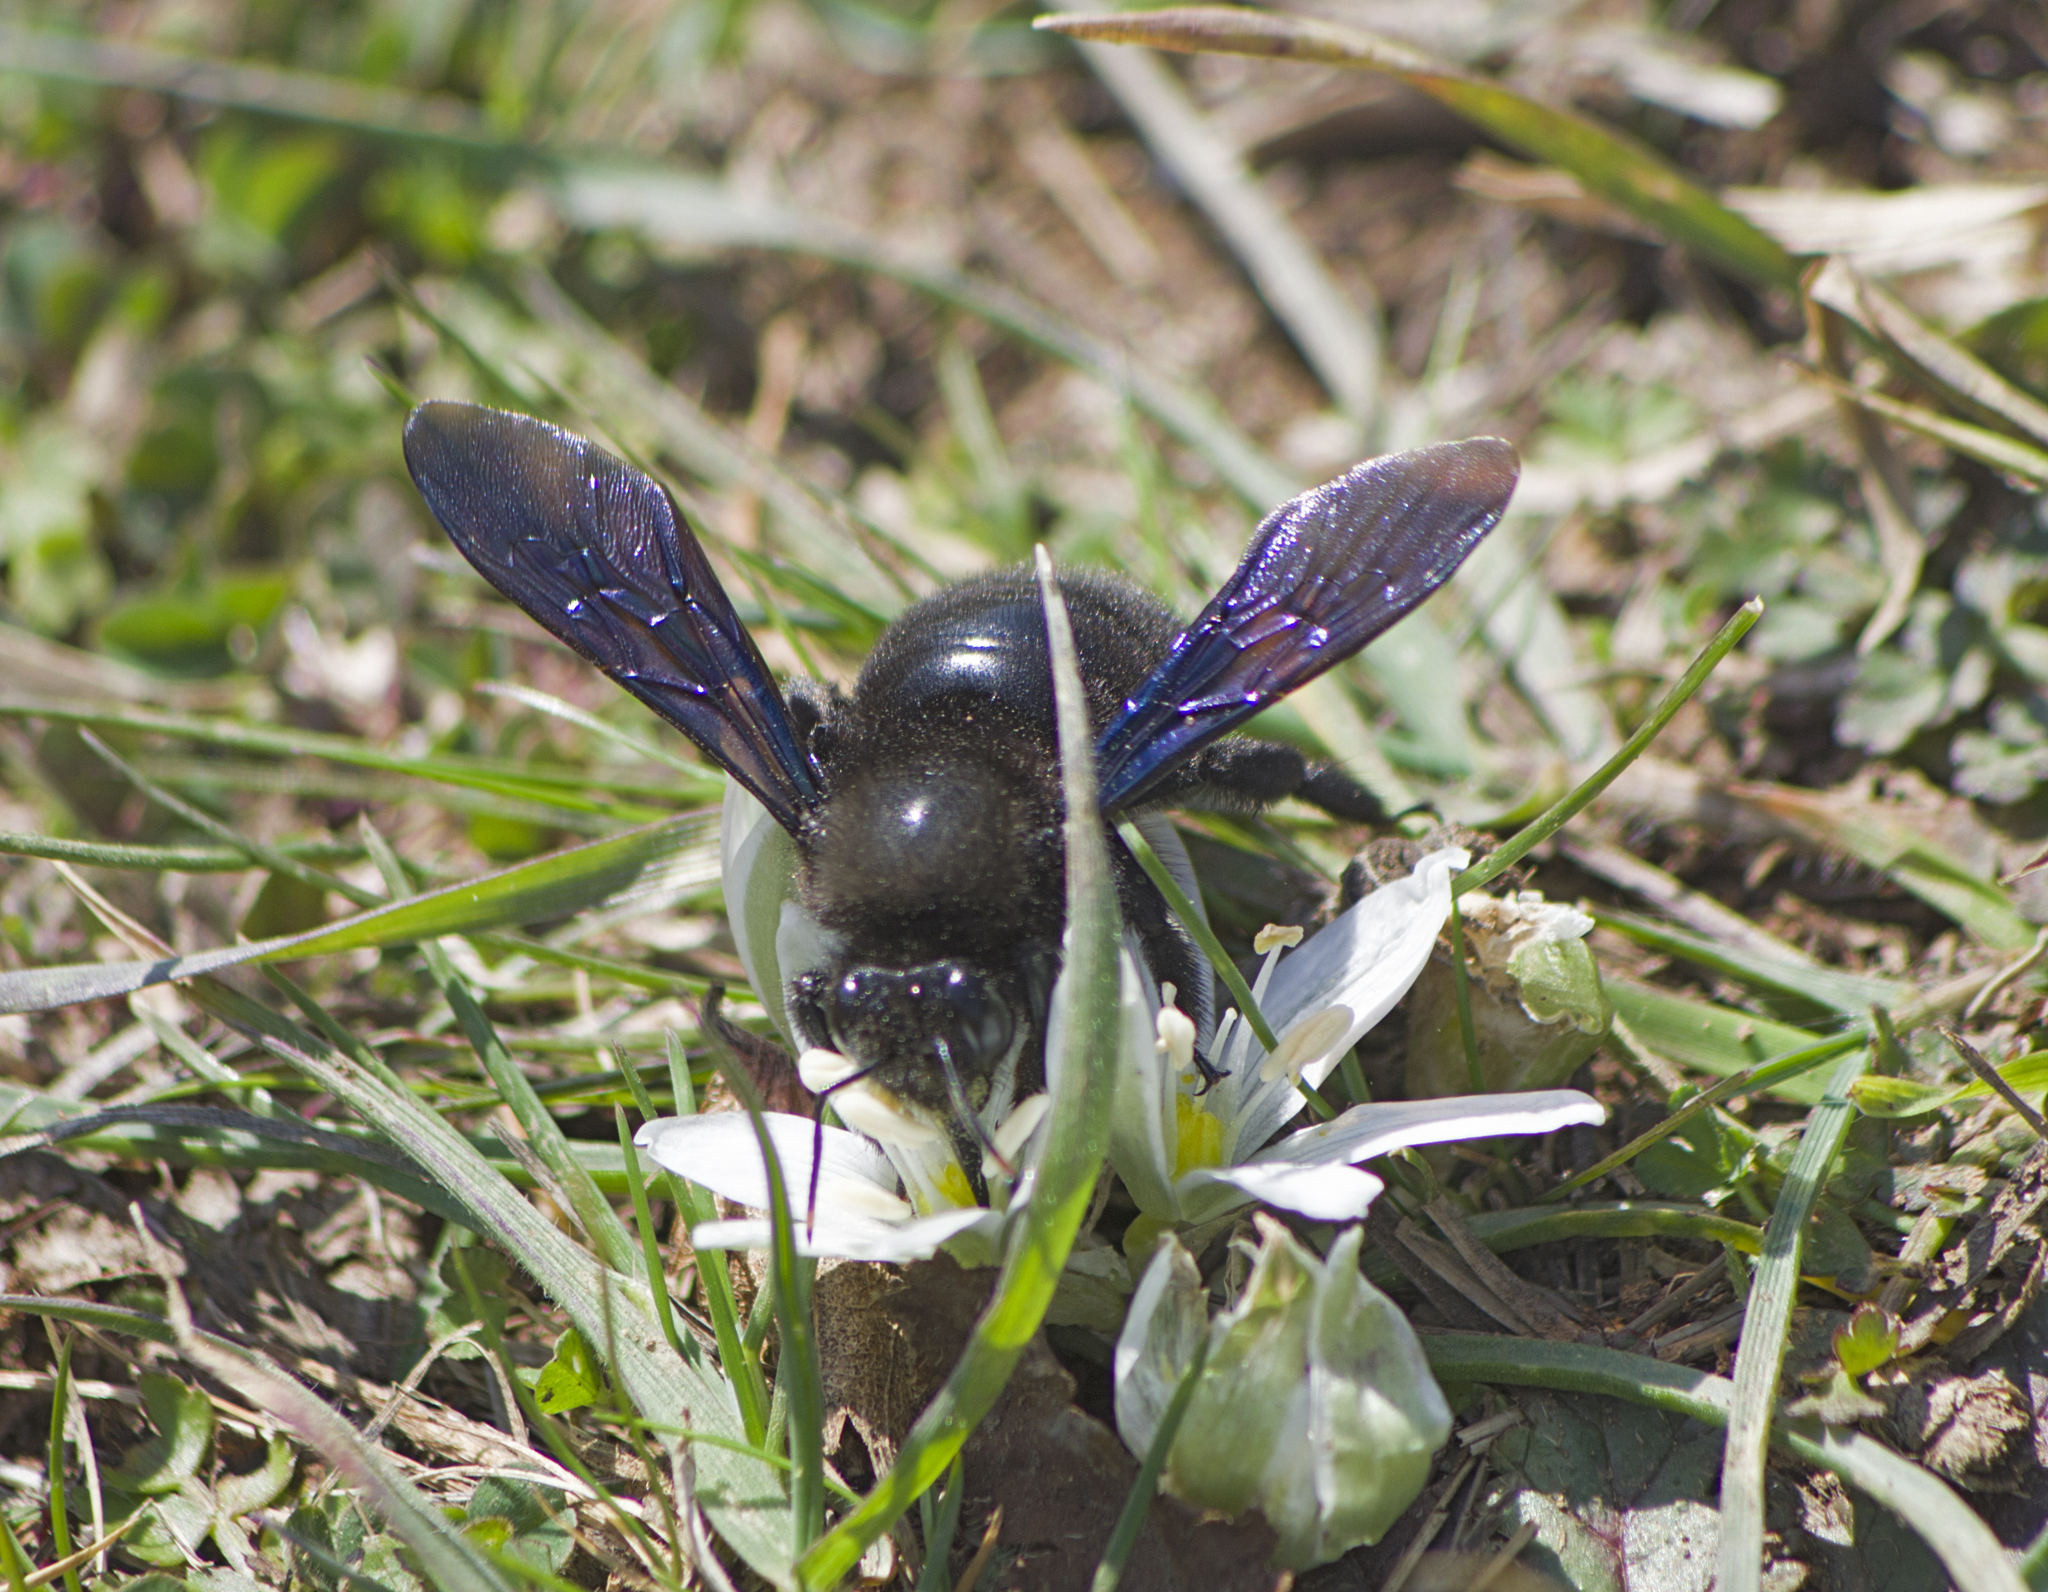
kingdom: Animalia
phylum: Arthropoda
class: Insecta
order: Hymenoptera
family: Apidae
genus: Xylocopa
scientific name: Xylocopa violacea
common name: Violet carpenter bee
